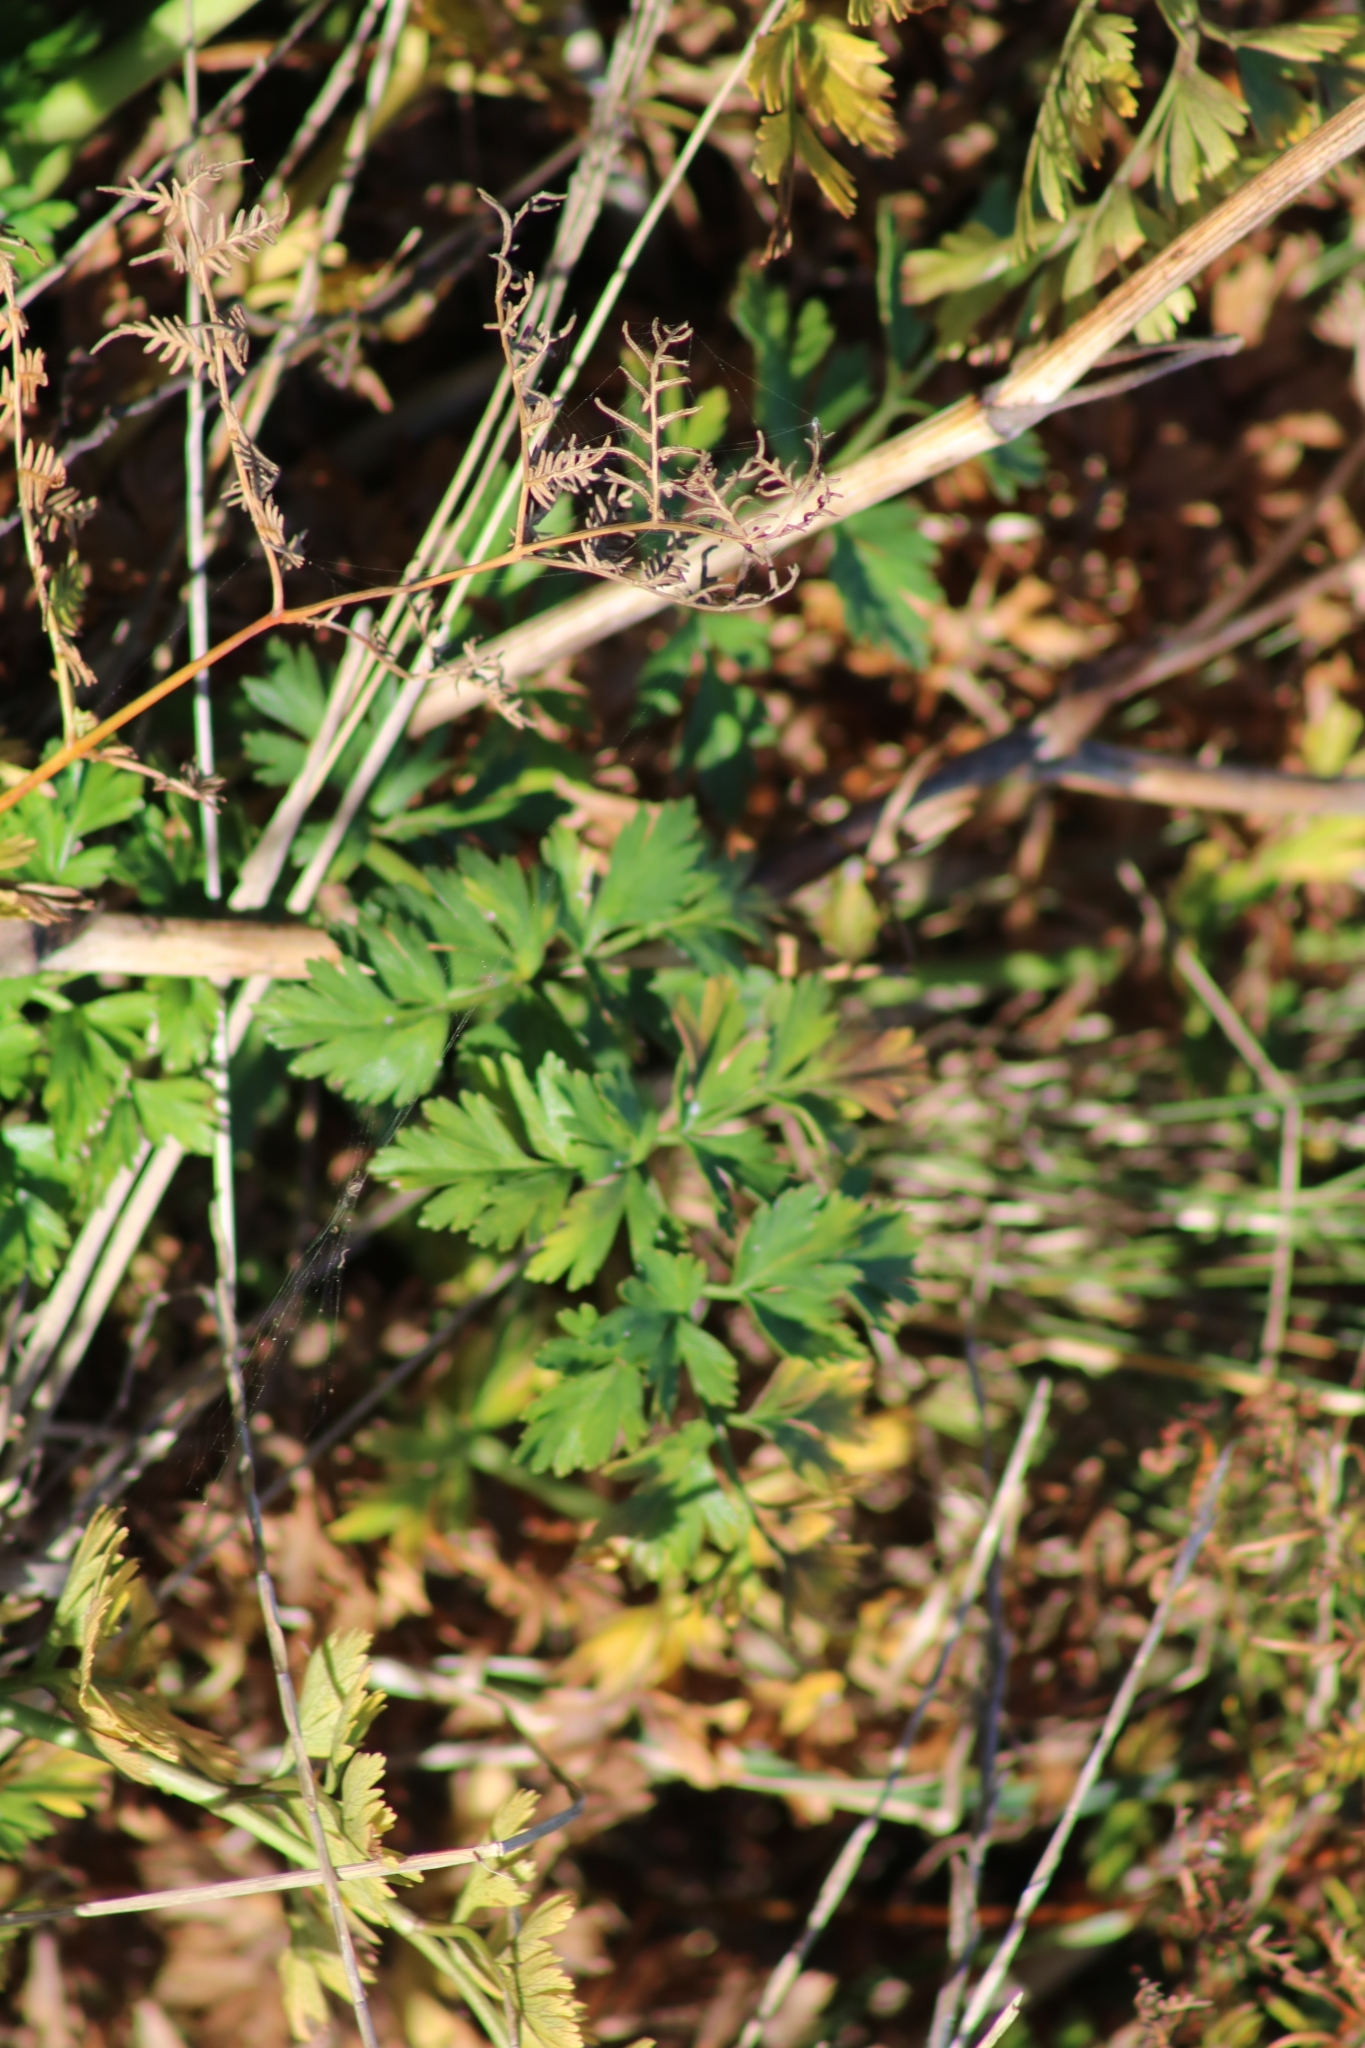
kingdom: Plantae
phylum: Tracheophyta
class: Magnoliopsida
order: Apiales
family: Apiaceae
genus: Anisotome
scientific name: Anisotome lyallii
